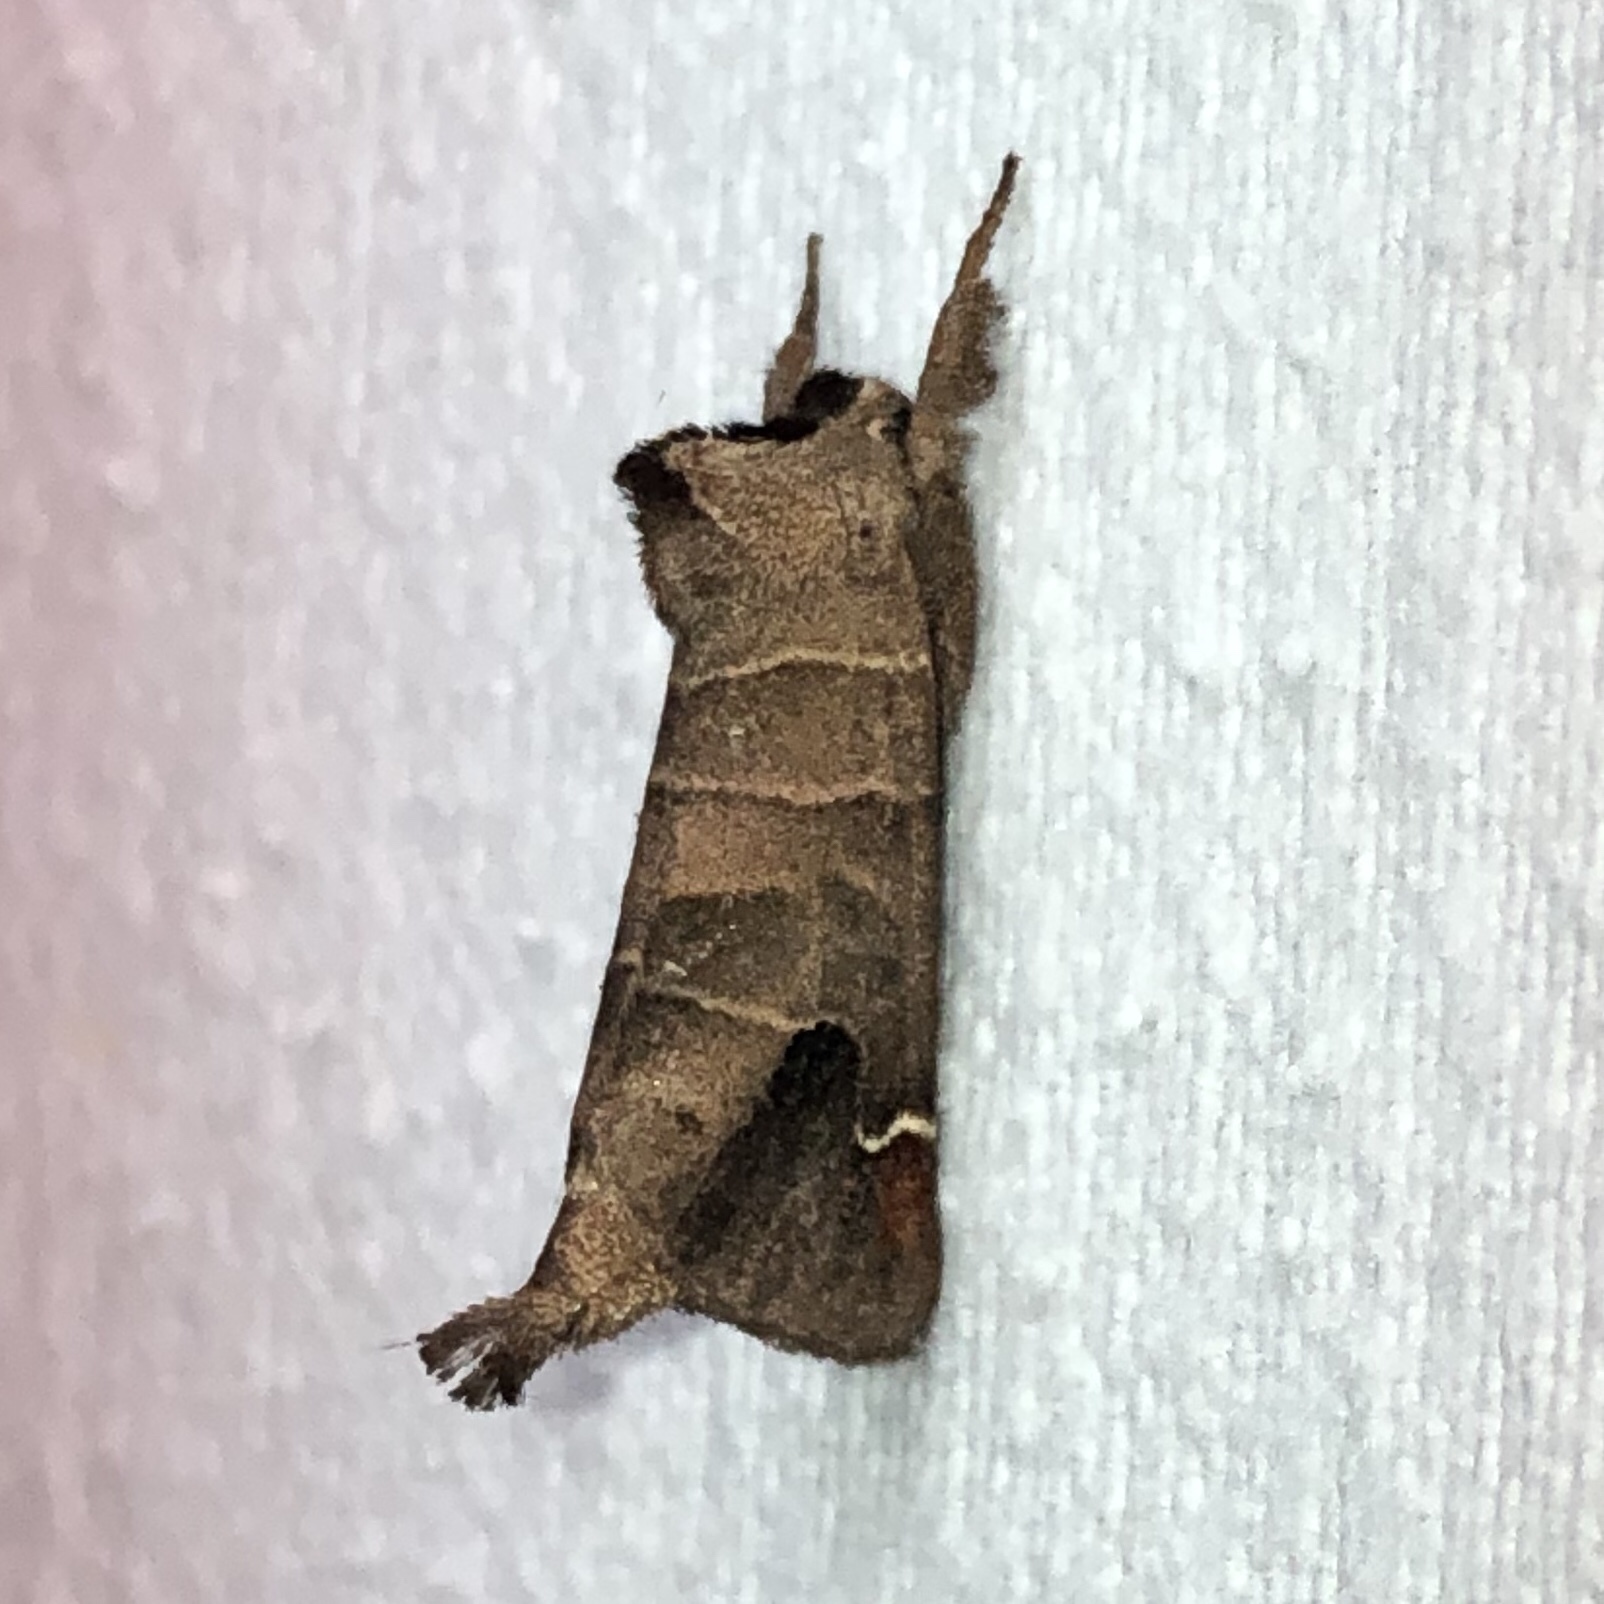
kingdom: Animalia
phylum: Arthropoda
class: Insecta
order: Lepidoptera
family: Notodontidae
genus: Clostera
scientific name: Clostera albosigma
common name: Sigmoid prominent
